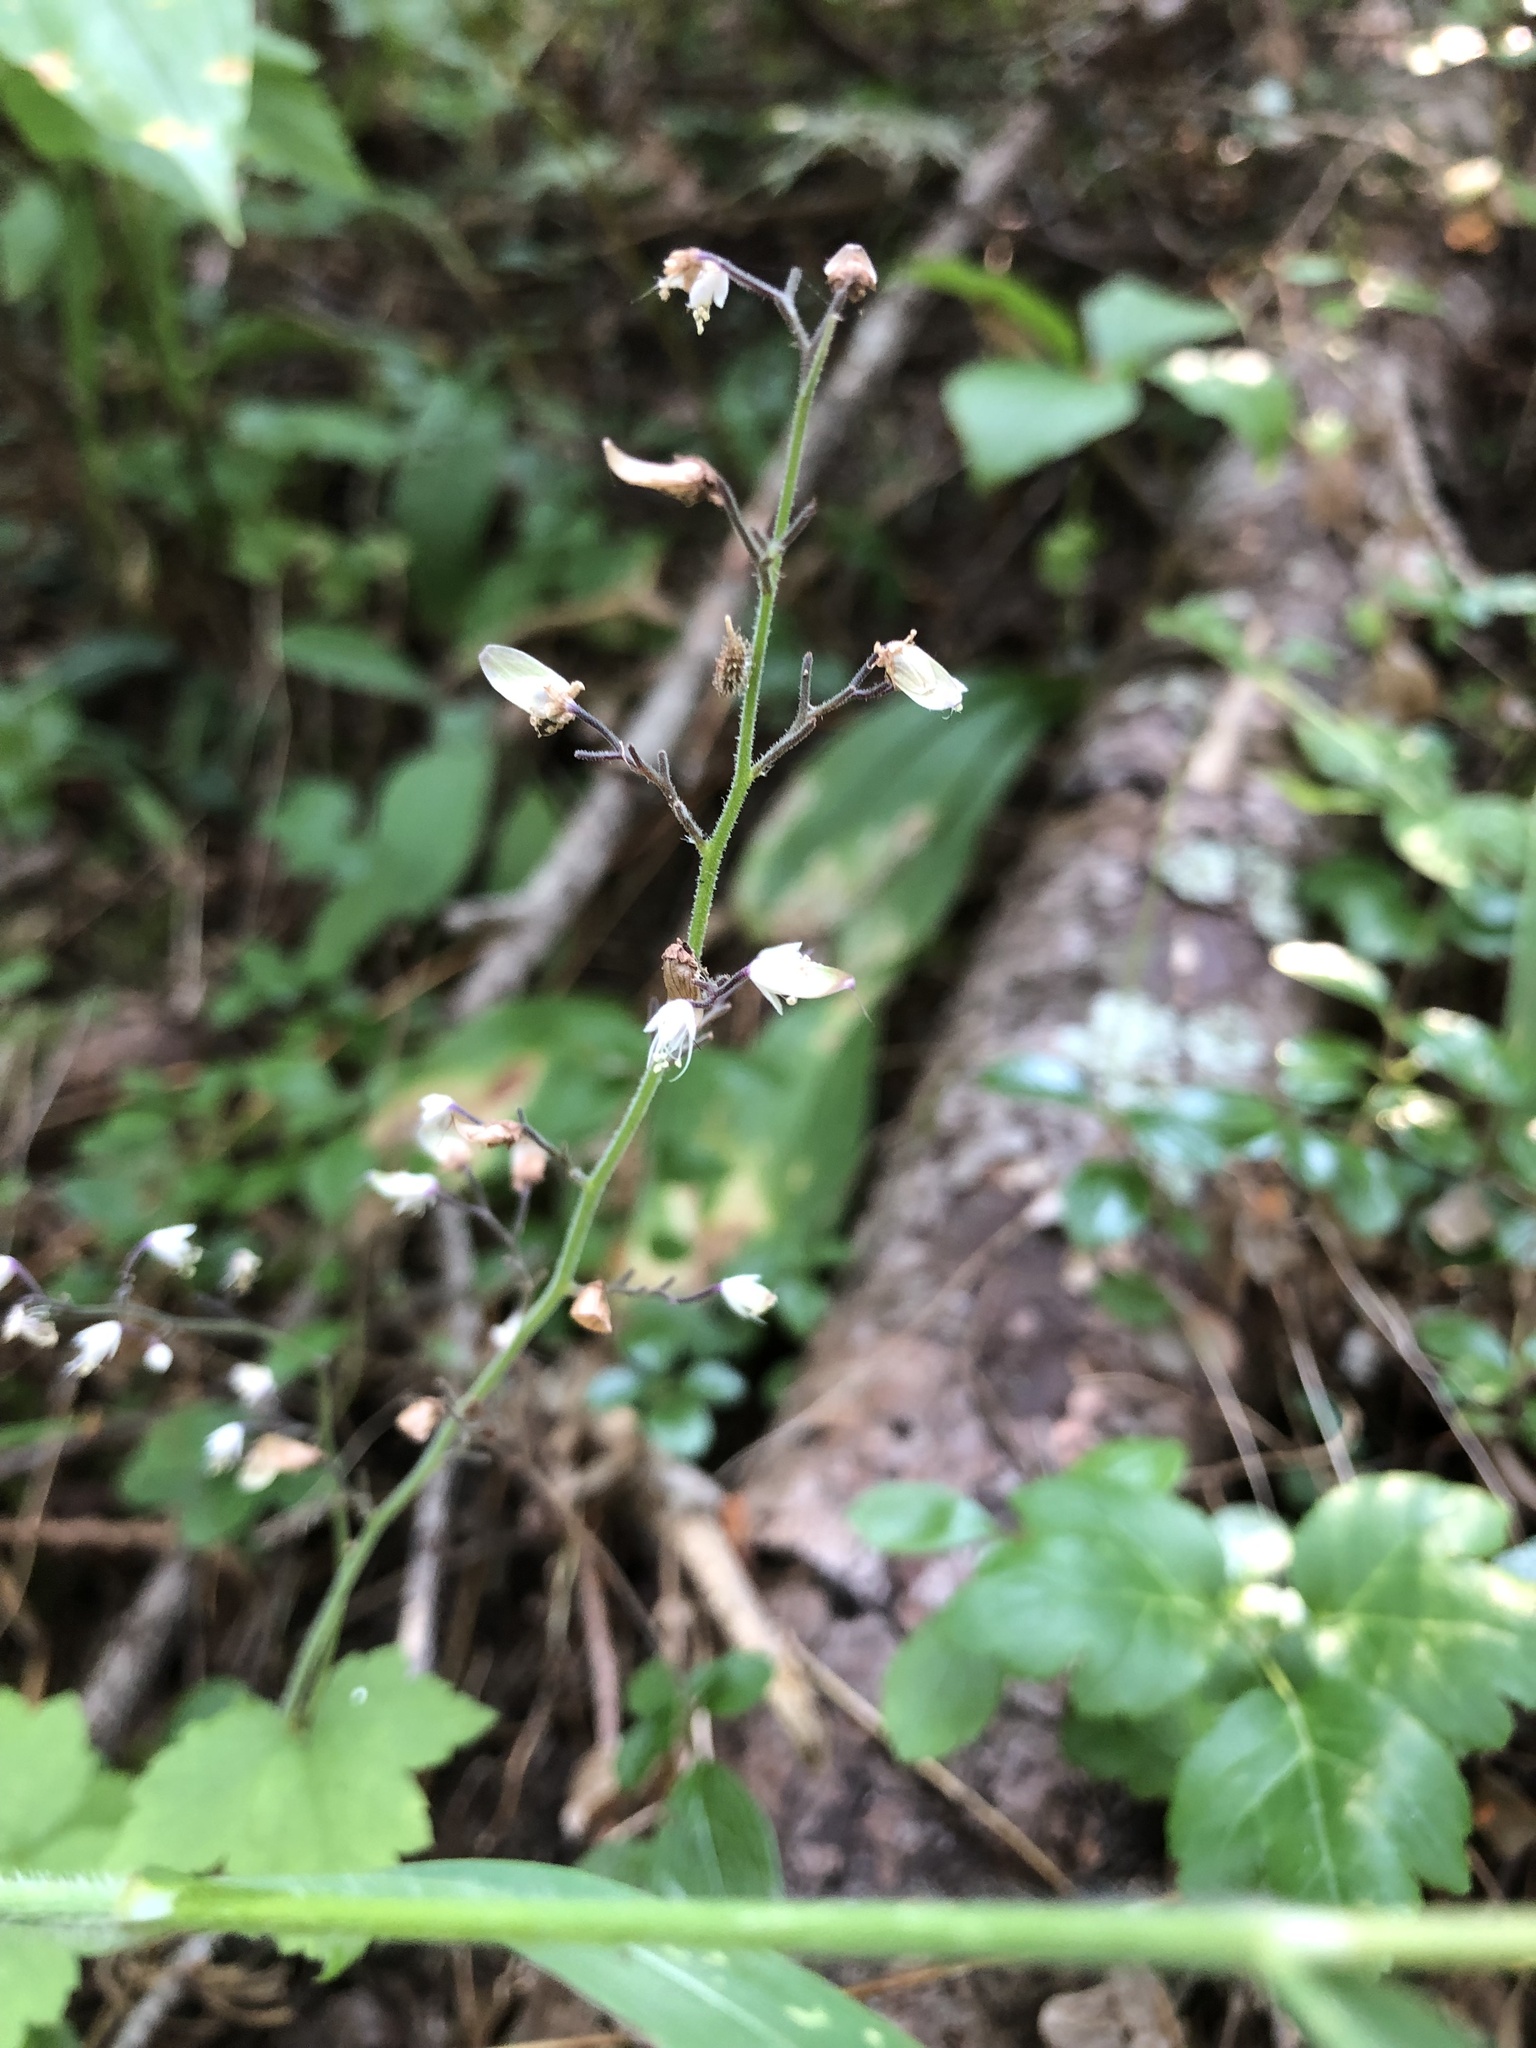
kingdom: Plantae
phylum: Tracheophyta
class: Magnoliopsida
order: Saxifragales
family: Saxifragaceae
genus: Tiarella
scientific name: Tiarella trifoliata
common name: Sugar-scoop
